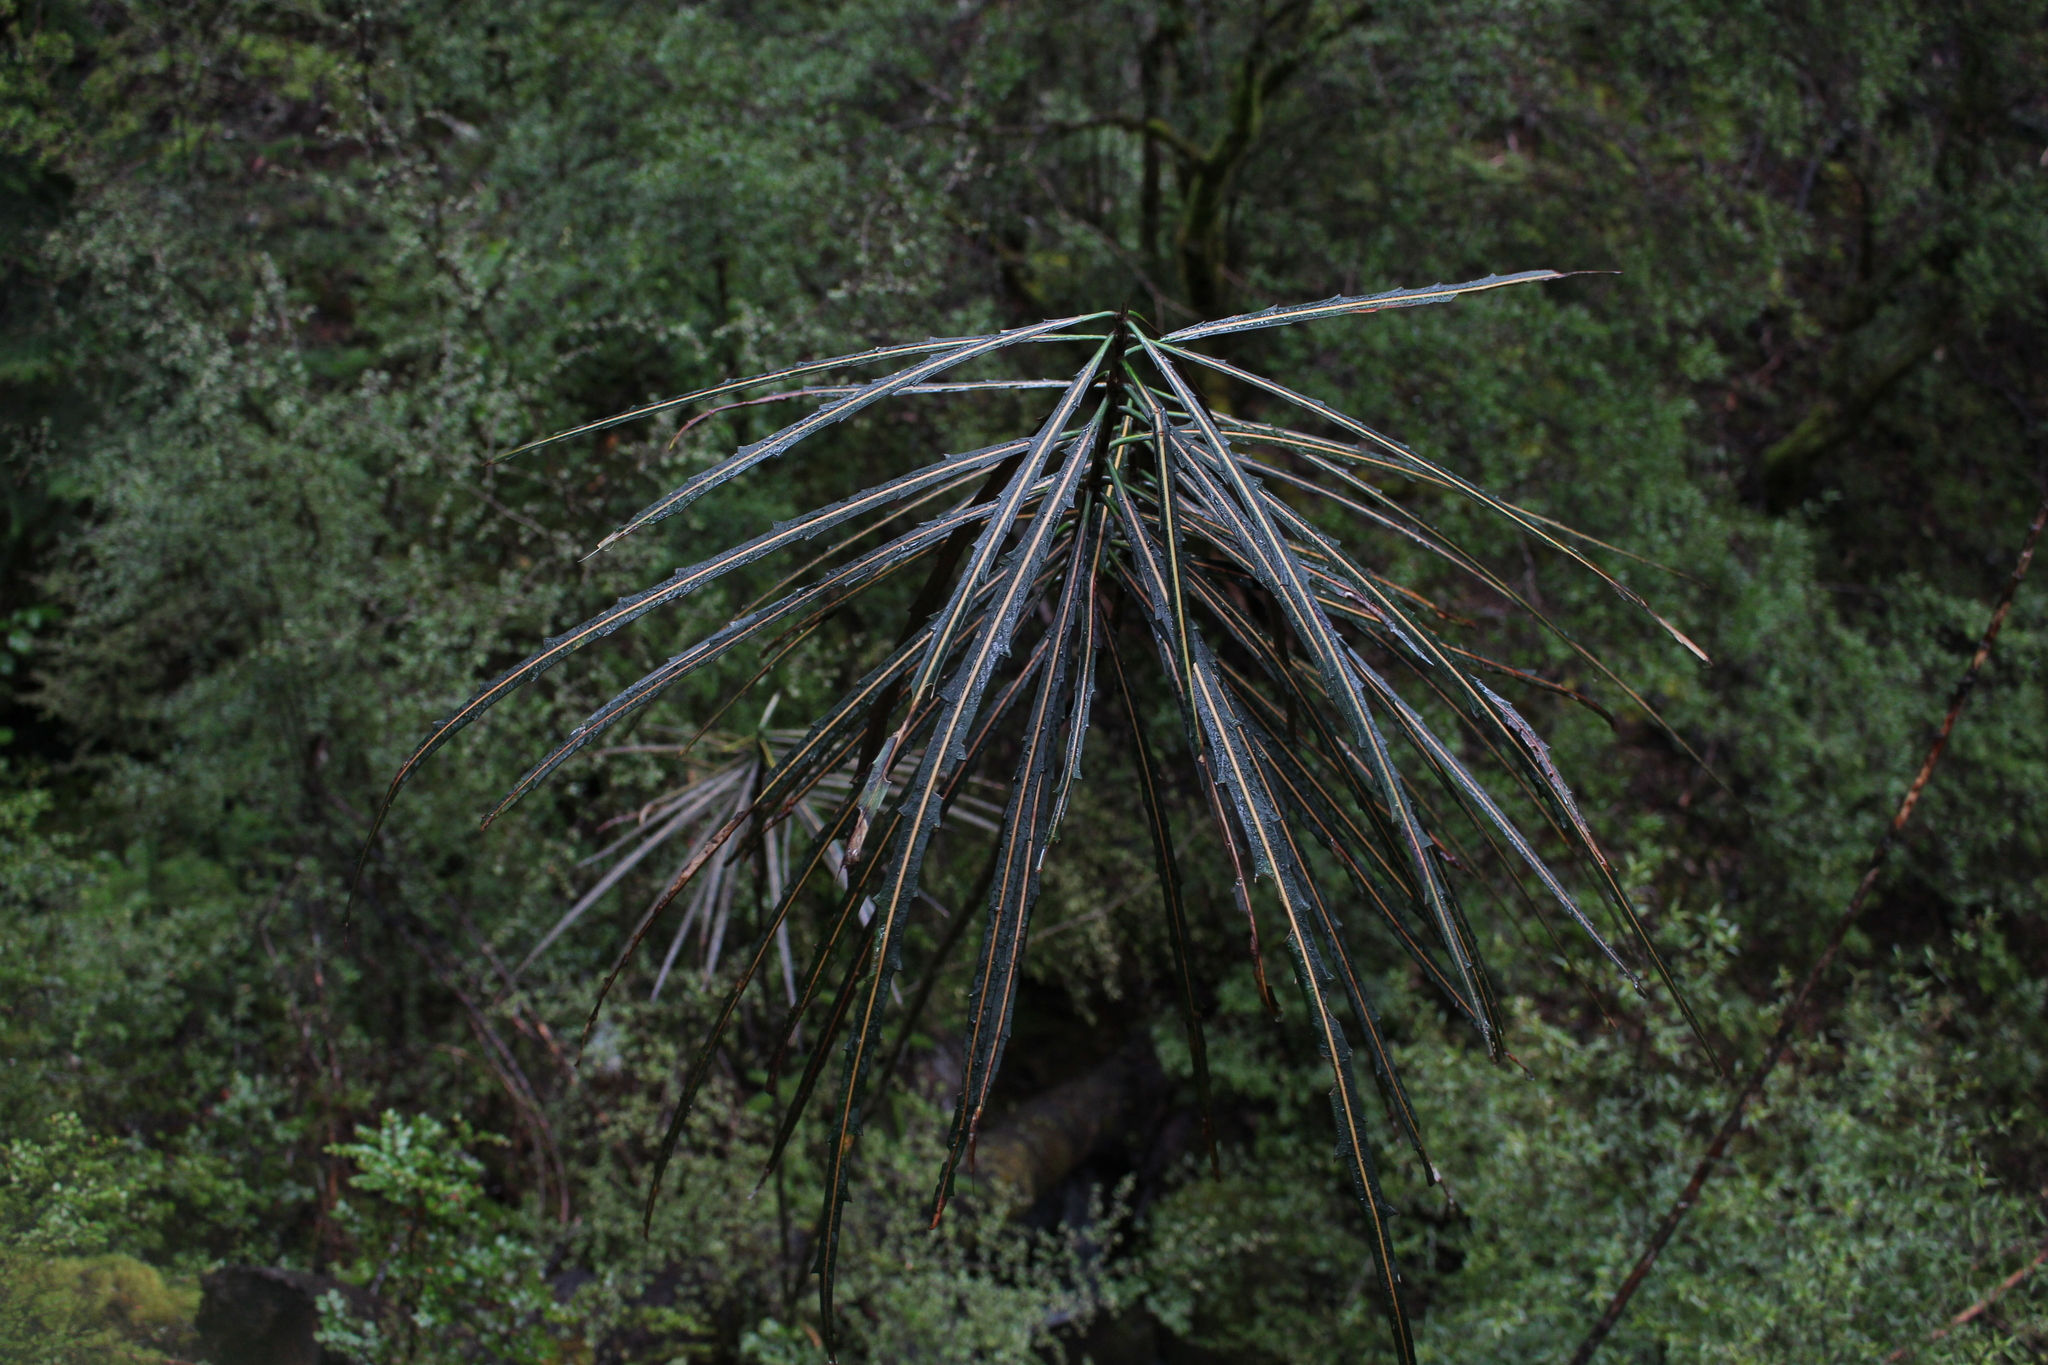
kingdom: Plantae
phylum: Tracheophyta
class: Magnoliopsida
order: Apiales
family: Araliaceae
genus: Pseudopanax
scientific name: Pseudopanax crassifolius
